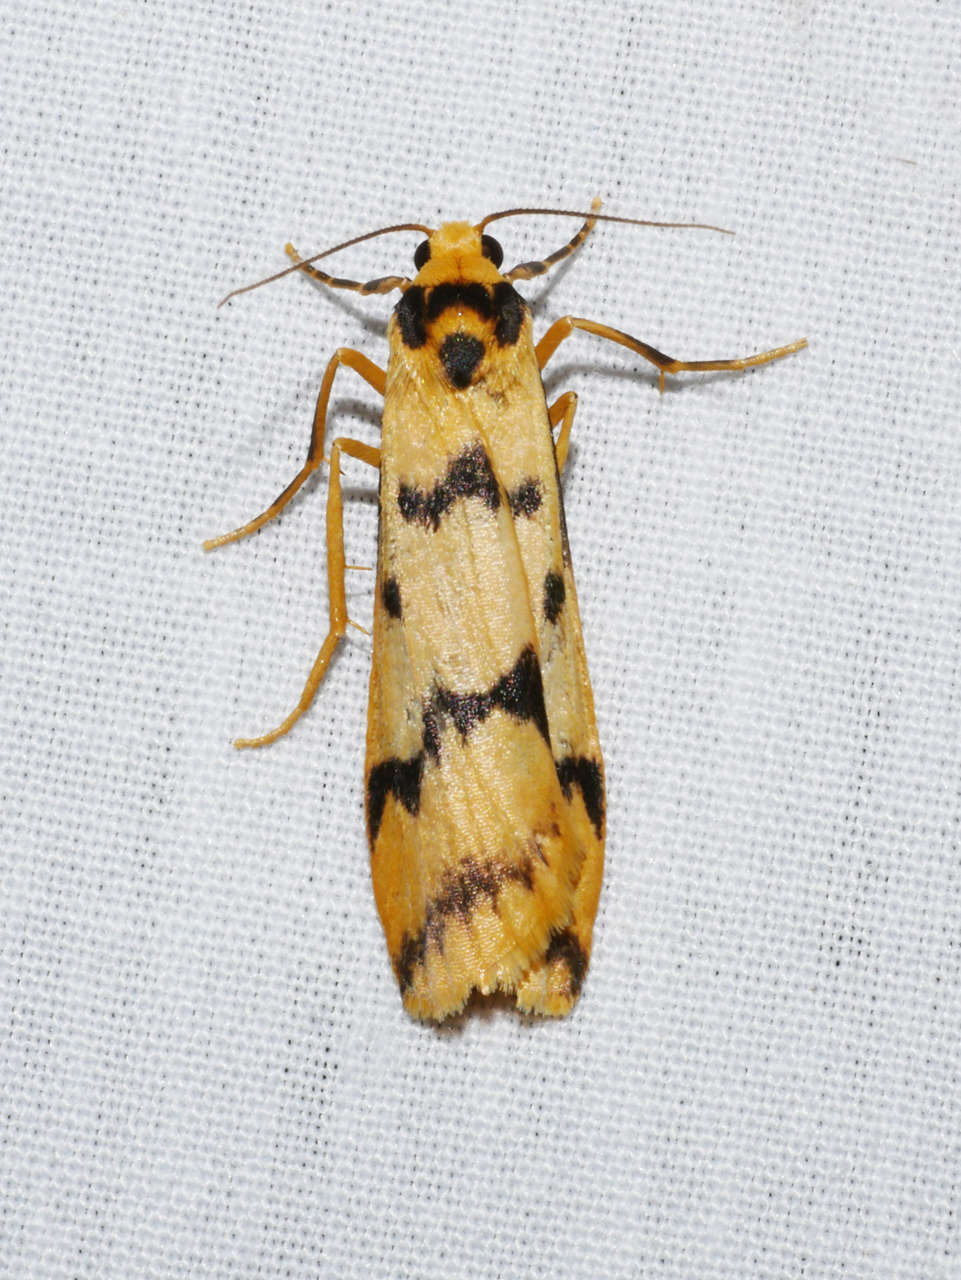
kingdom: Animalia
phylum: Arthropoda
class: Insecta
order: Lepidoptera
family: Erebidae
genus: Tigrioides
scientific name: Tigrioides alterna
